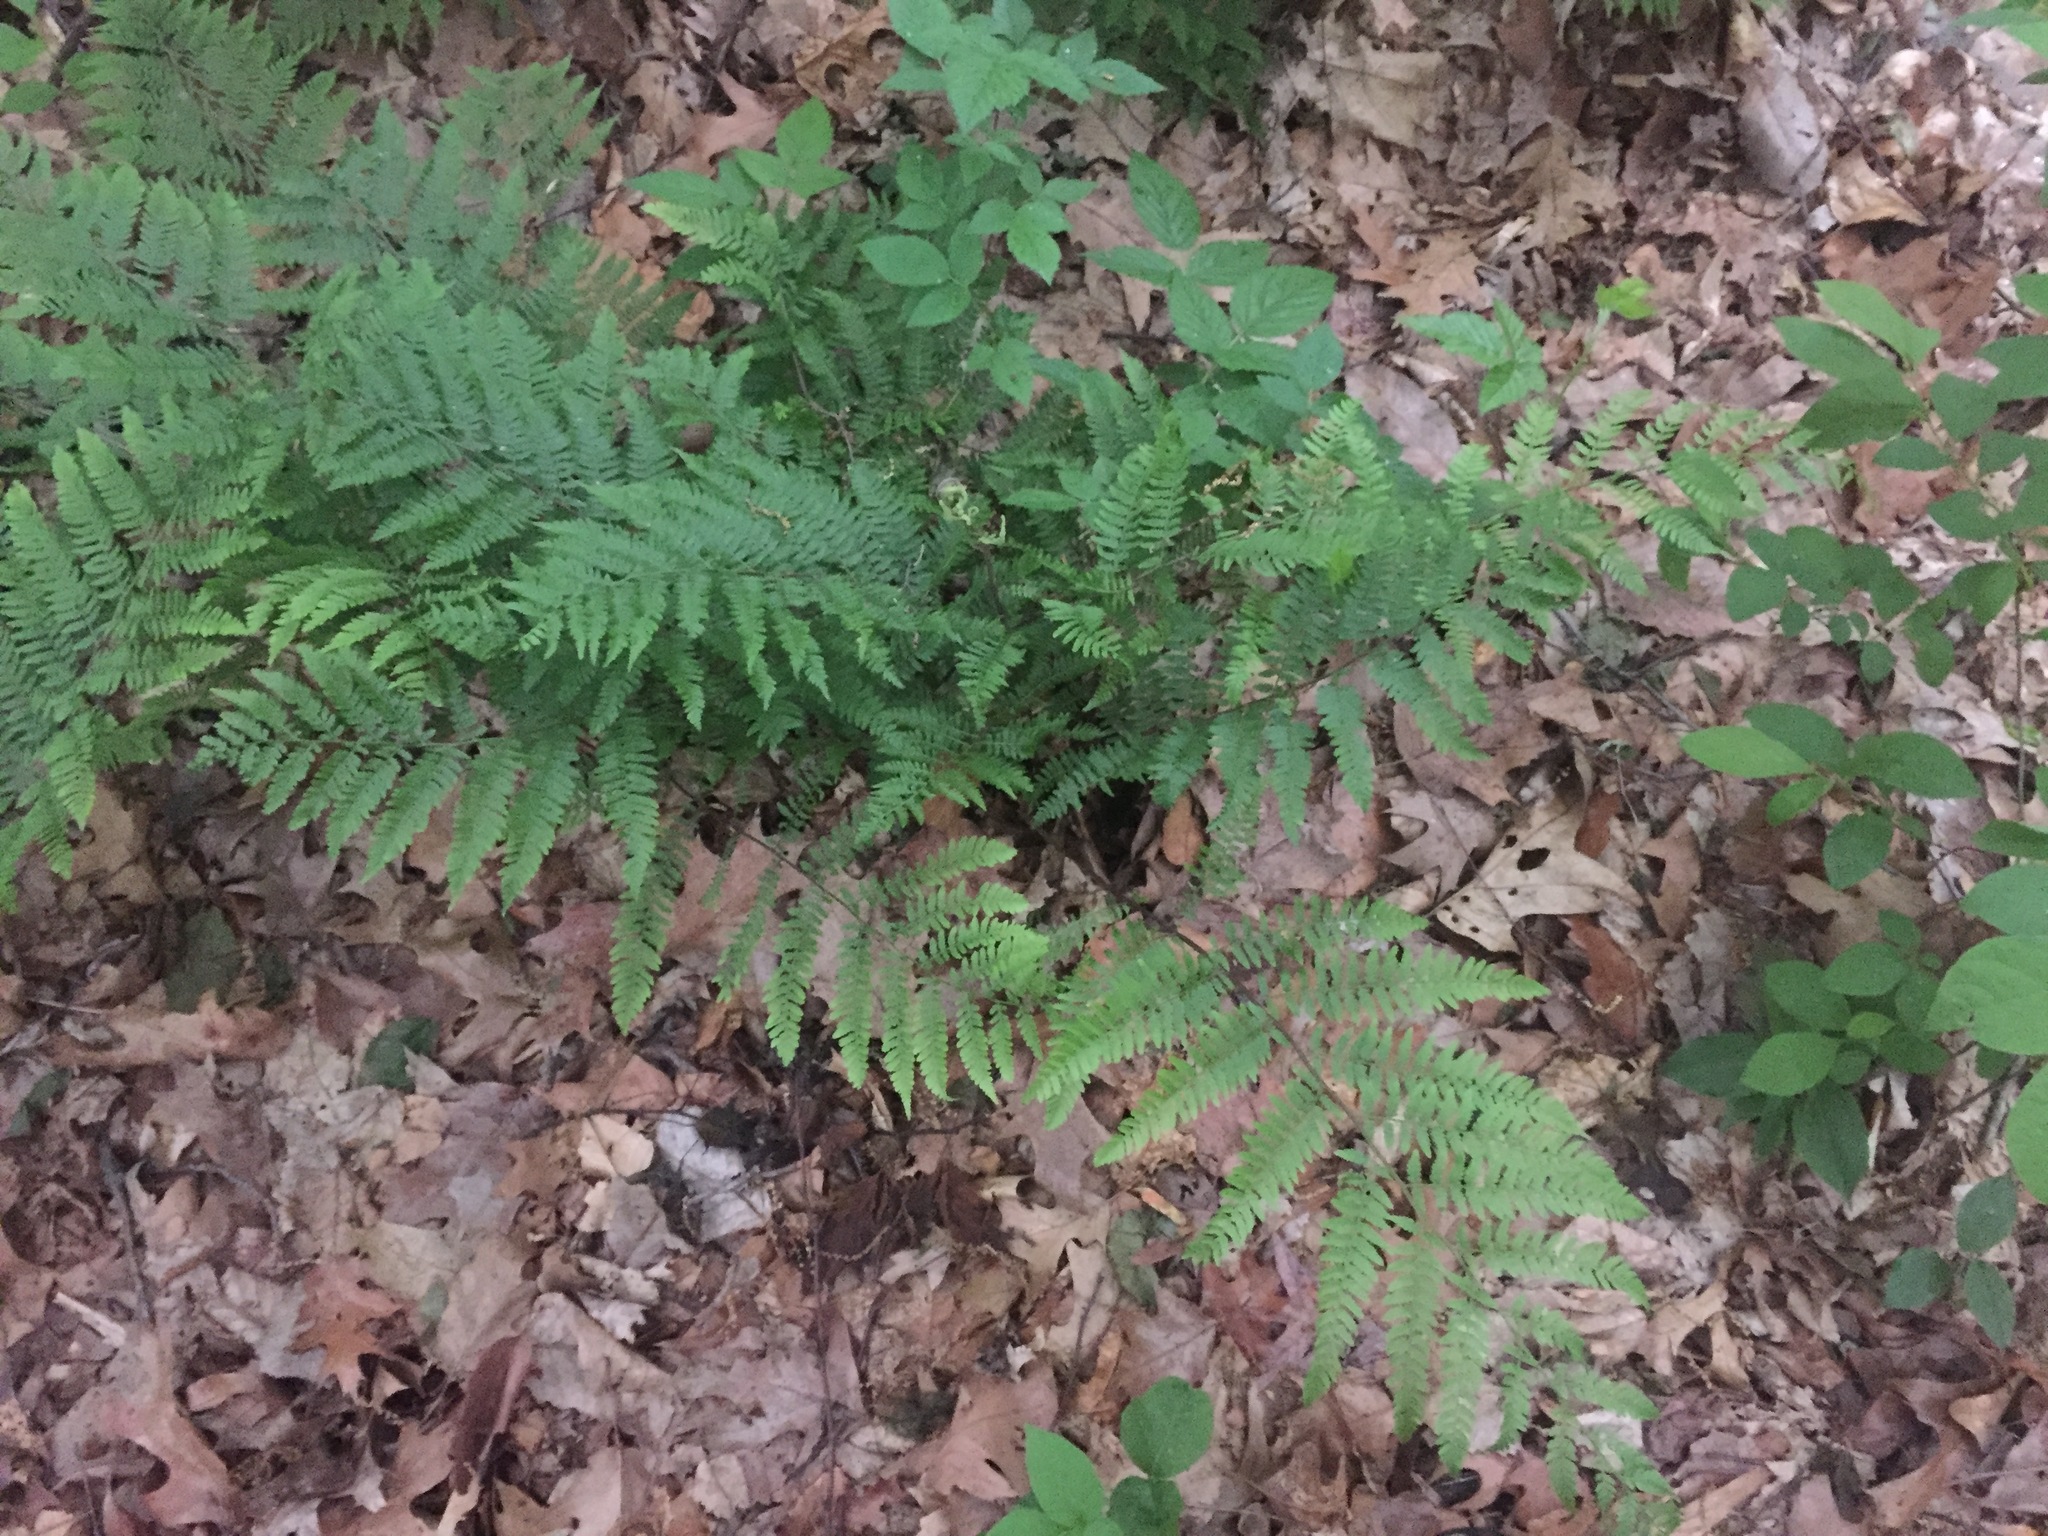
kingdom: Plantae
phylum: Tracheophyta
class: Polypodiopsida
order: Polypodiales
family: Athyriaceae
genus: Athyrium
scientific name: Athyrium angustum
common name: Northern lady fern
